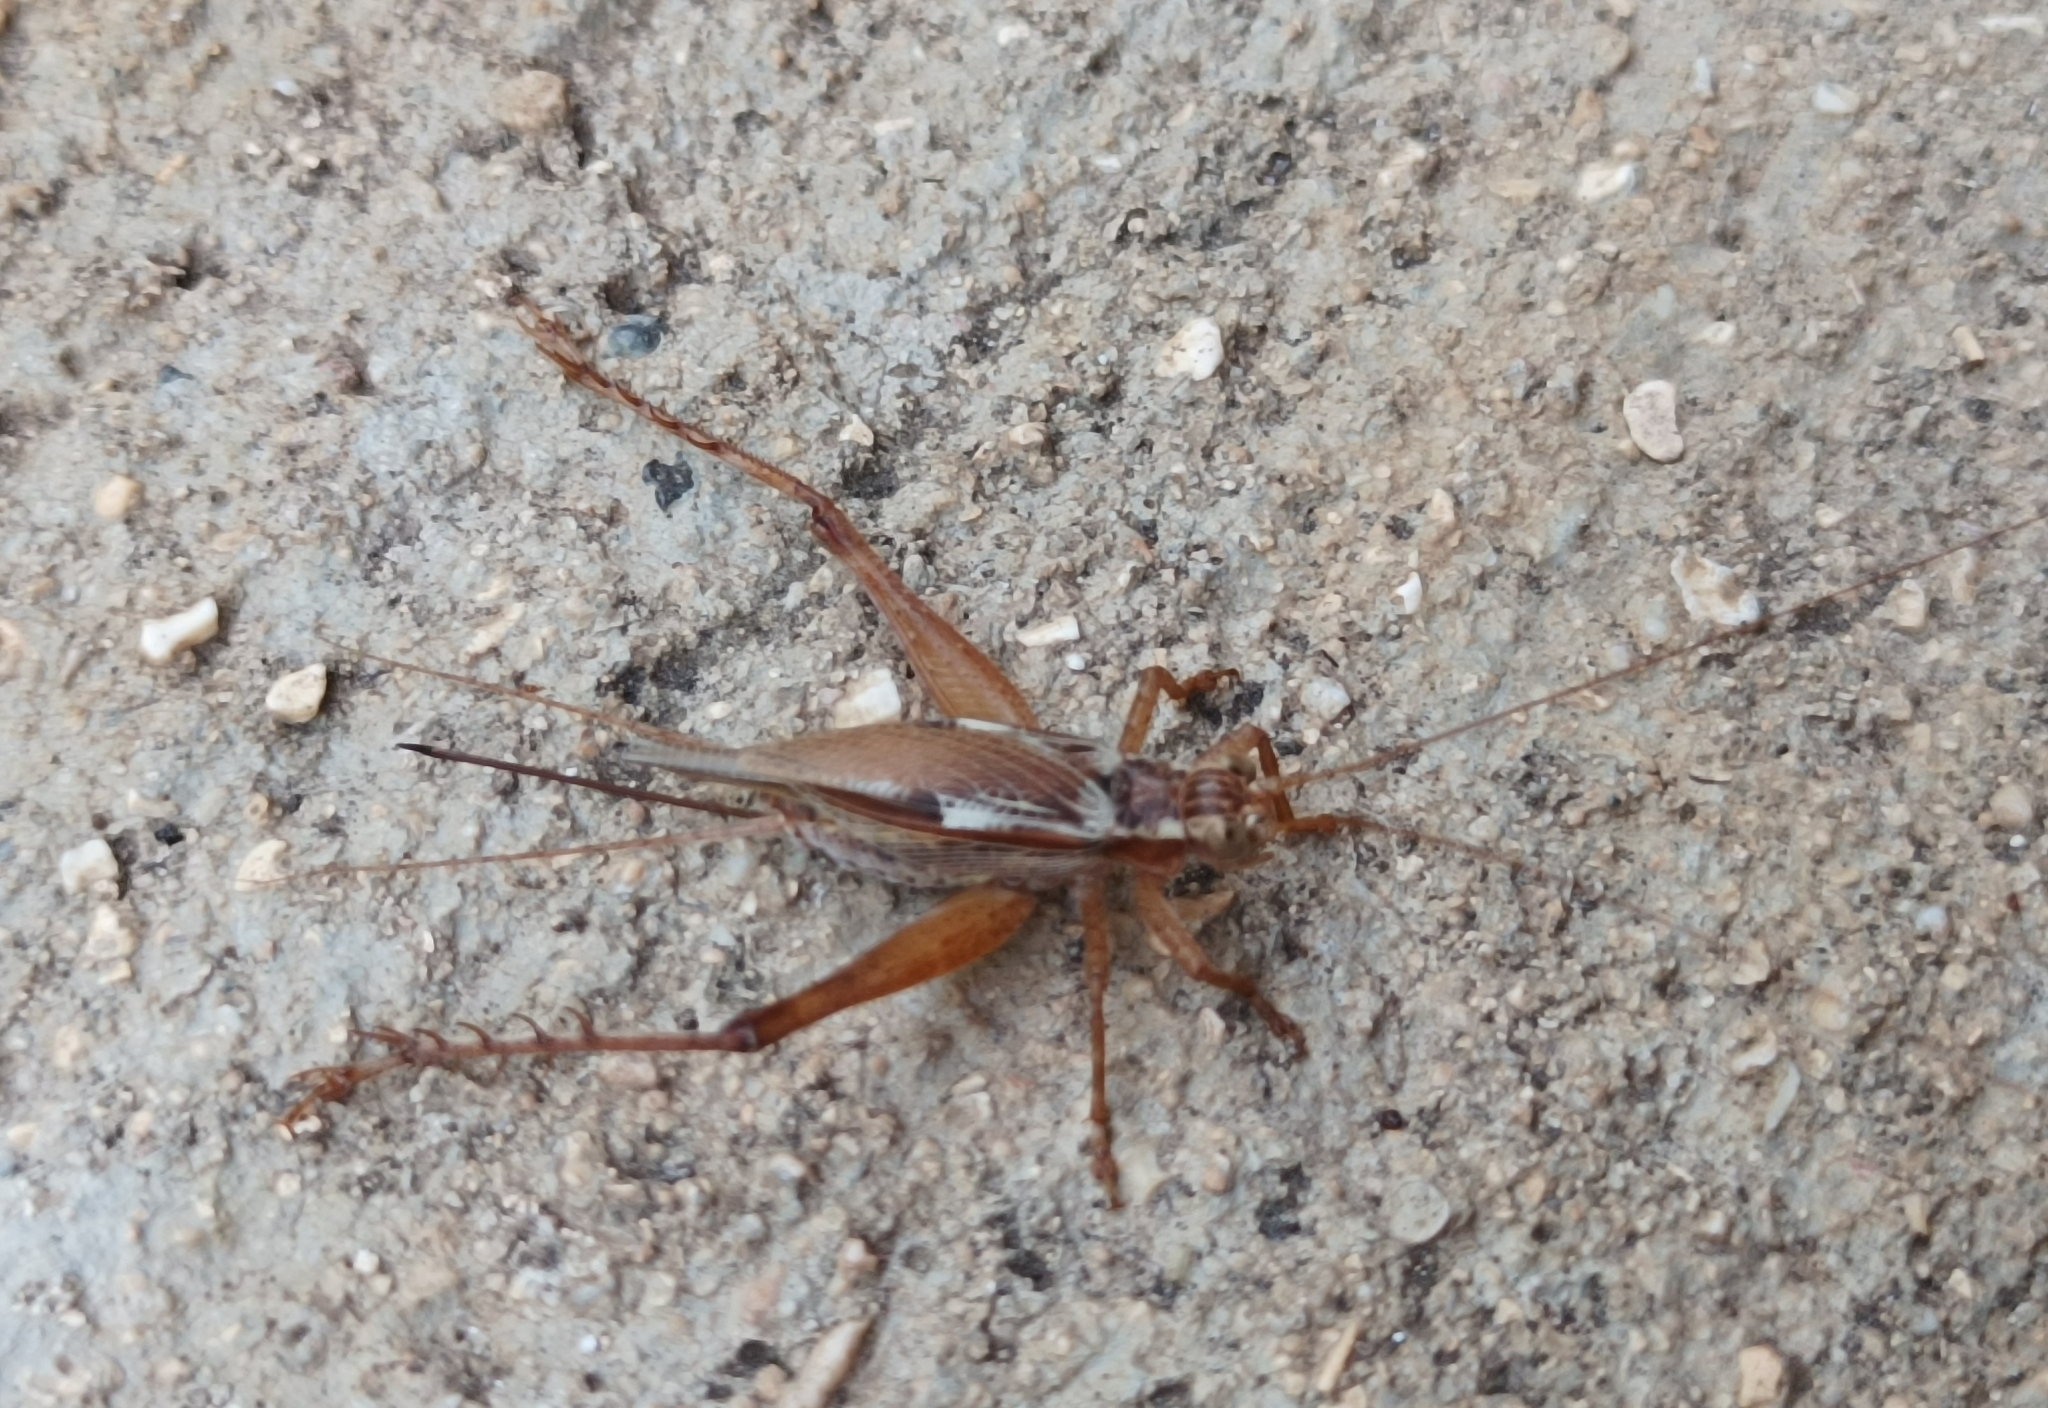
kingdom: Animalia
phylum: Arthropoda
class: Insecta
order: Orthoptera
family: Gryllidae
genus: Cardiodactylus
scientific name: Cardiodactylus novaeguineae
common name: Sad cricket
